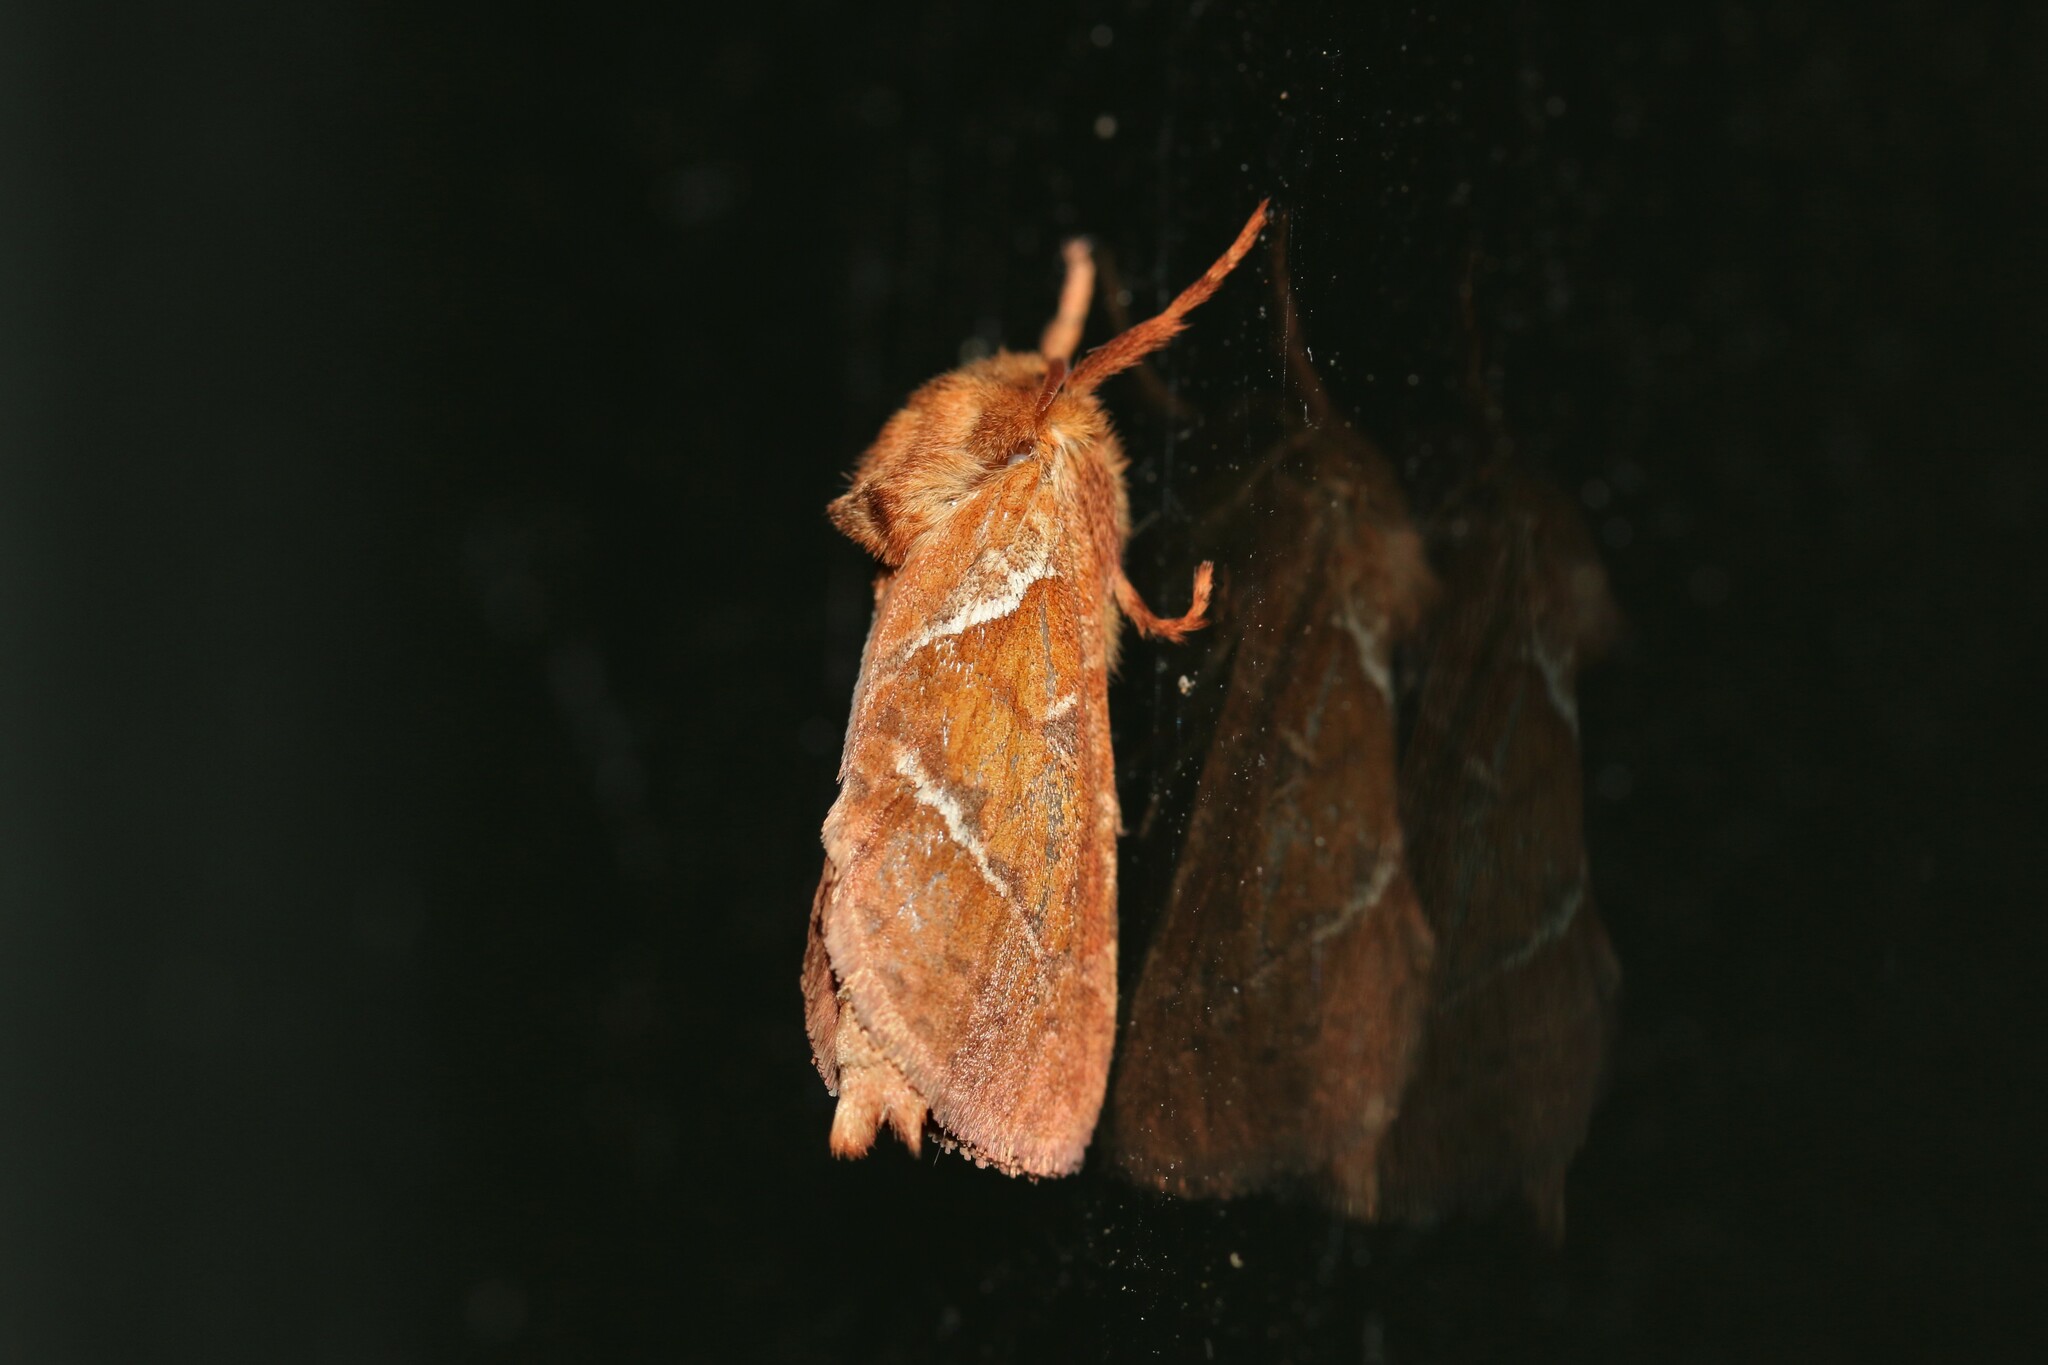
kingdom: Animalia
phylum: Arthropoda
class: Insecta
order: Lepidoptera
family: Hepialidae
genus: Triodia
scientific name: Triodia sylvina
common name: Orange swift
